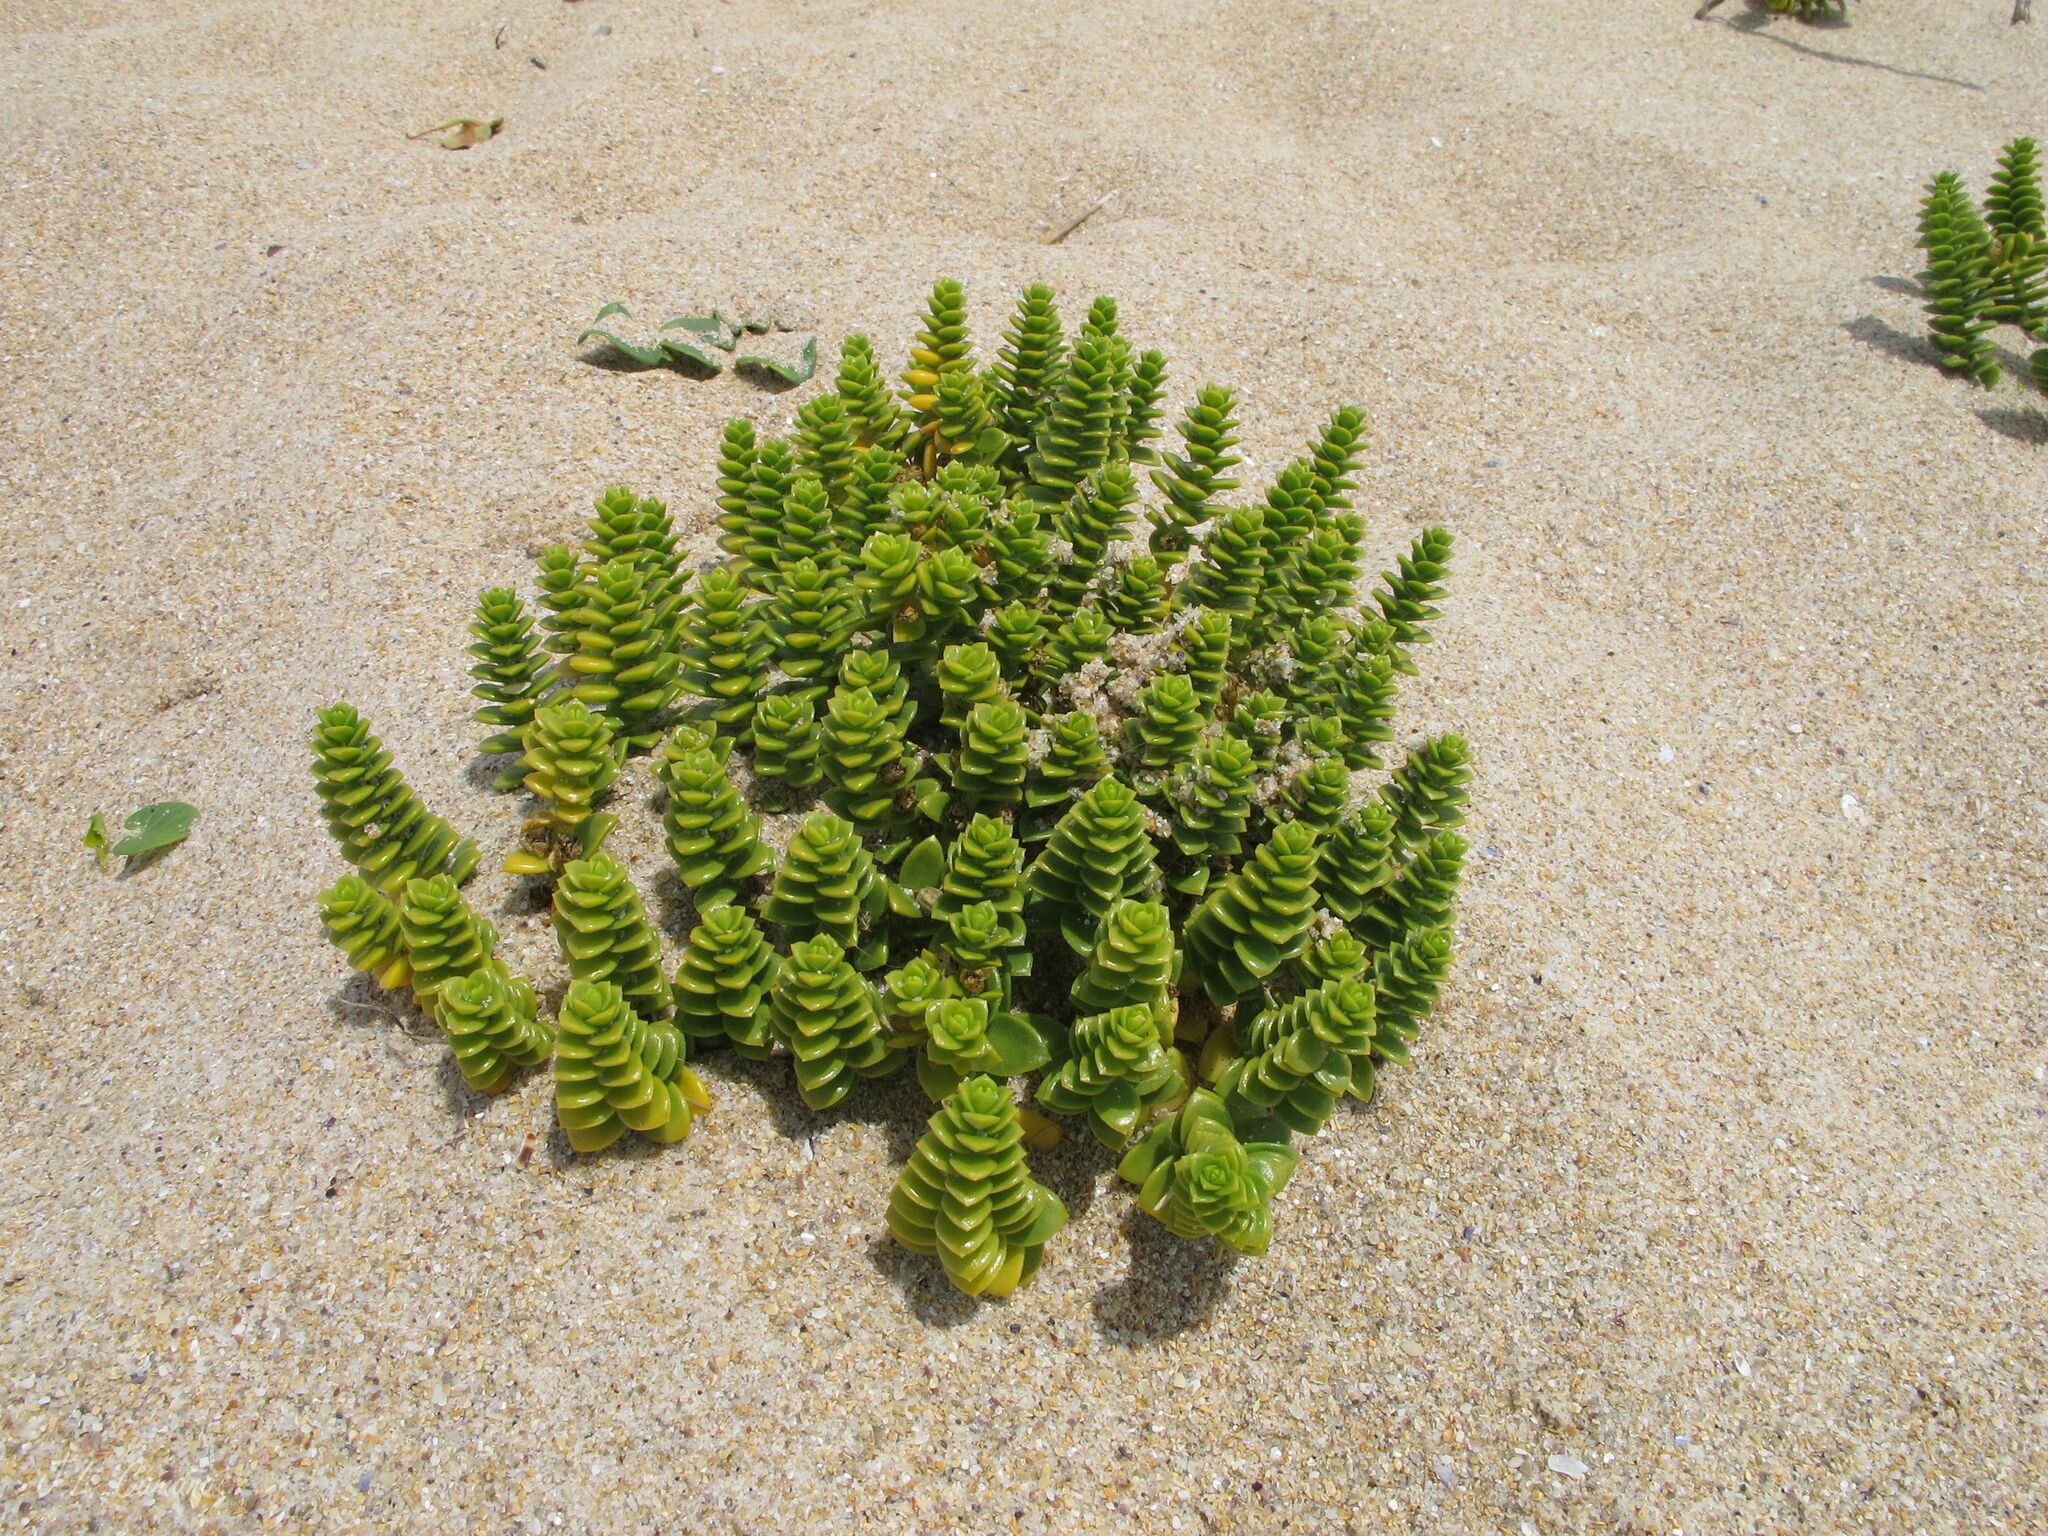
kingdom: Plantae
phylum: Tracheophyta
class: Magnoliopsida
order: Caryophyllales
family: Caryophyllaceae
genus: Honckenya
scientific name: Honckenya peploides
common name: Sea sandwort
